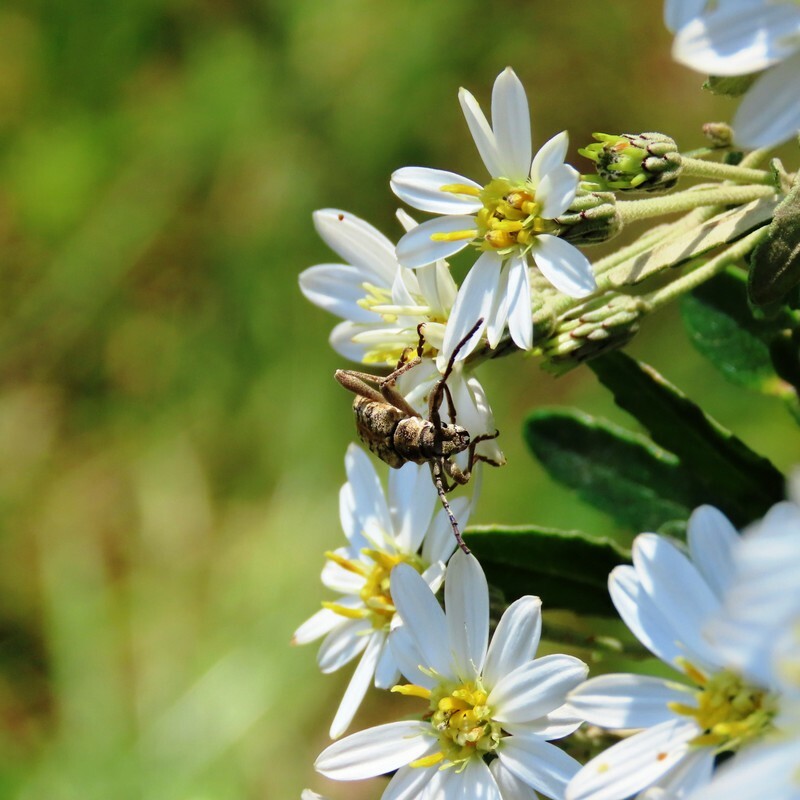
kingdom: Animalia
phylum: Arthropoda
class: Insecta
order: Coleoptera
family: Cerambycidae
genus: Pempsamacra
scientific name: Pempsamacra dispersa
